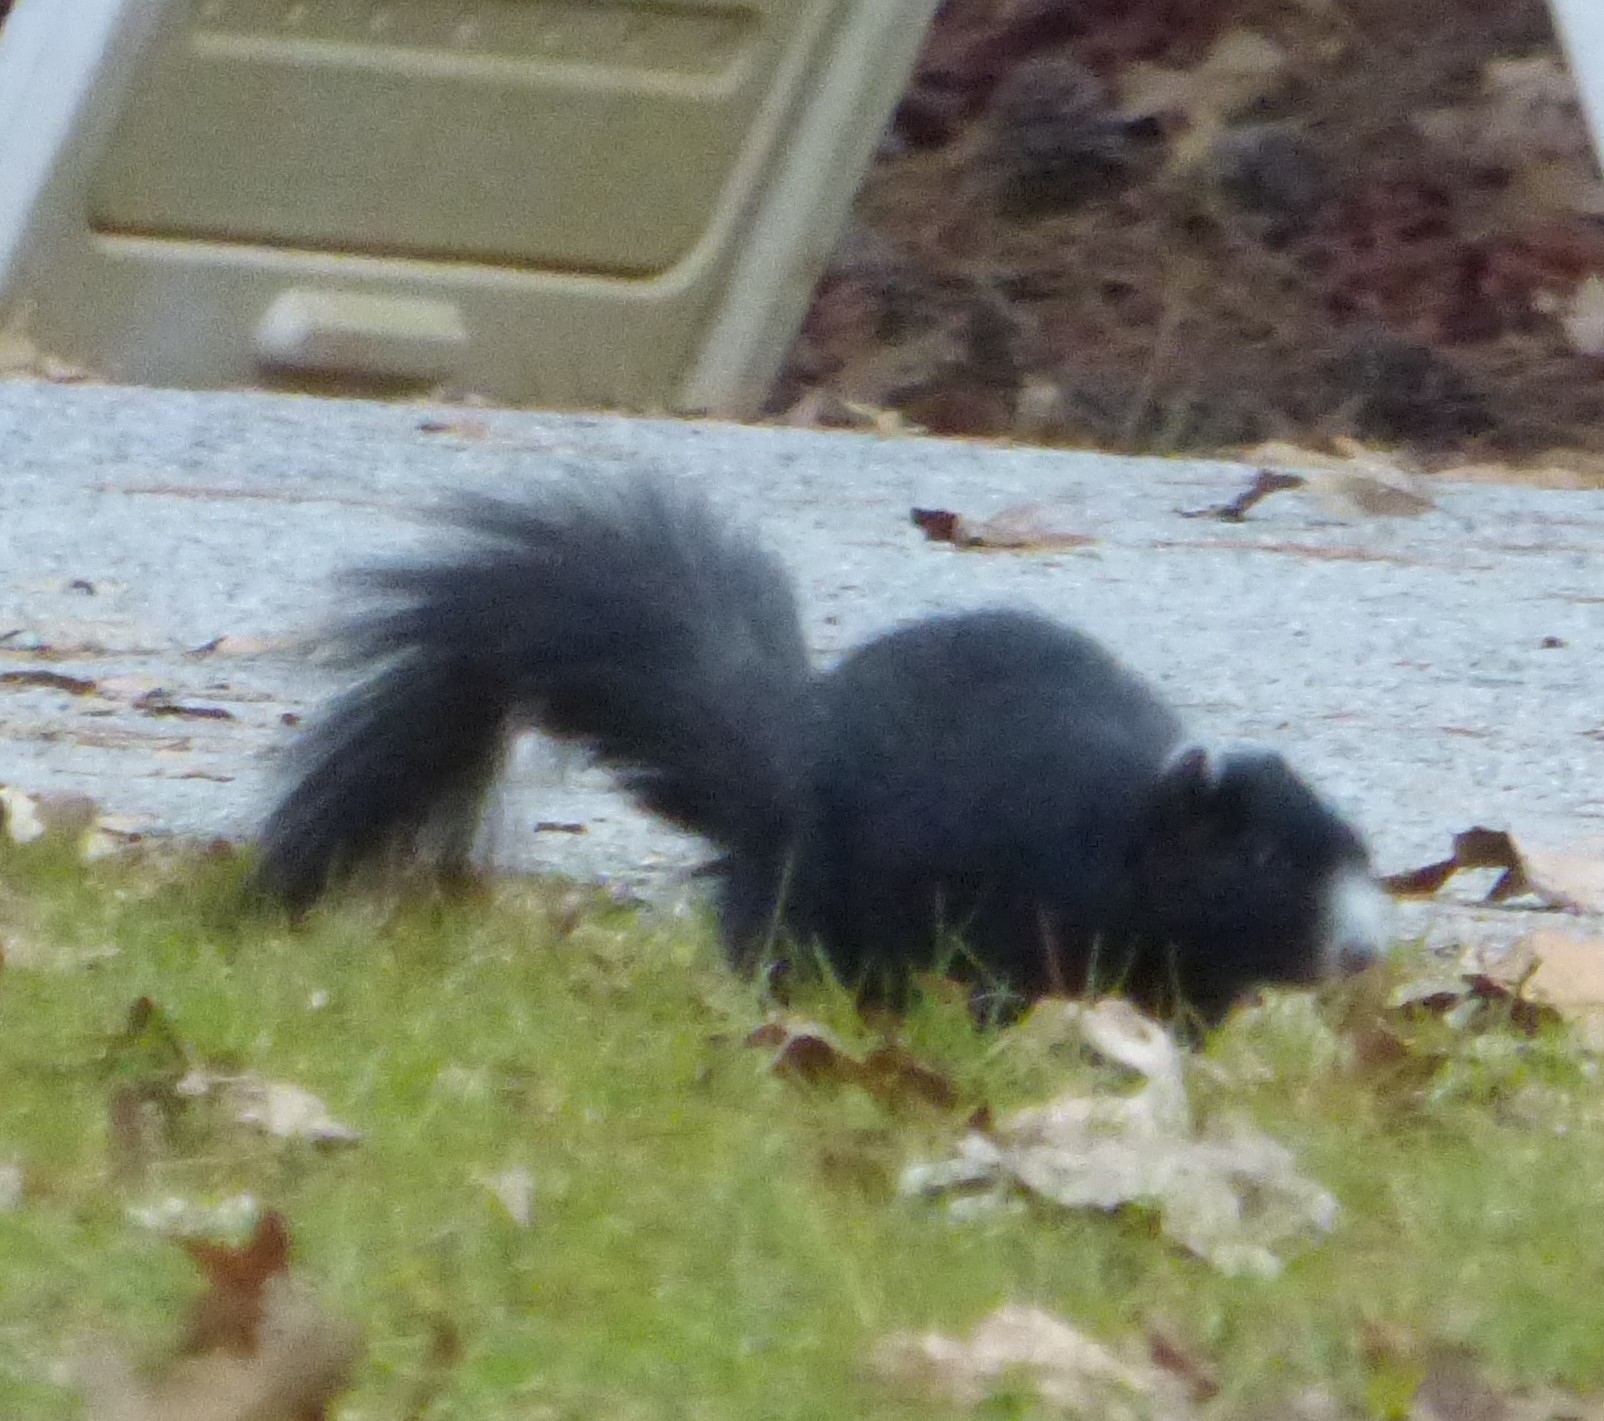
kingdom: Animalia
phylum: Chordata
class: Mammalia
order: Rodentia
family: Sciuridae
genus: Sciurus
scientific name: Sciurus niger
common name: Fox squirrel
